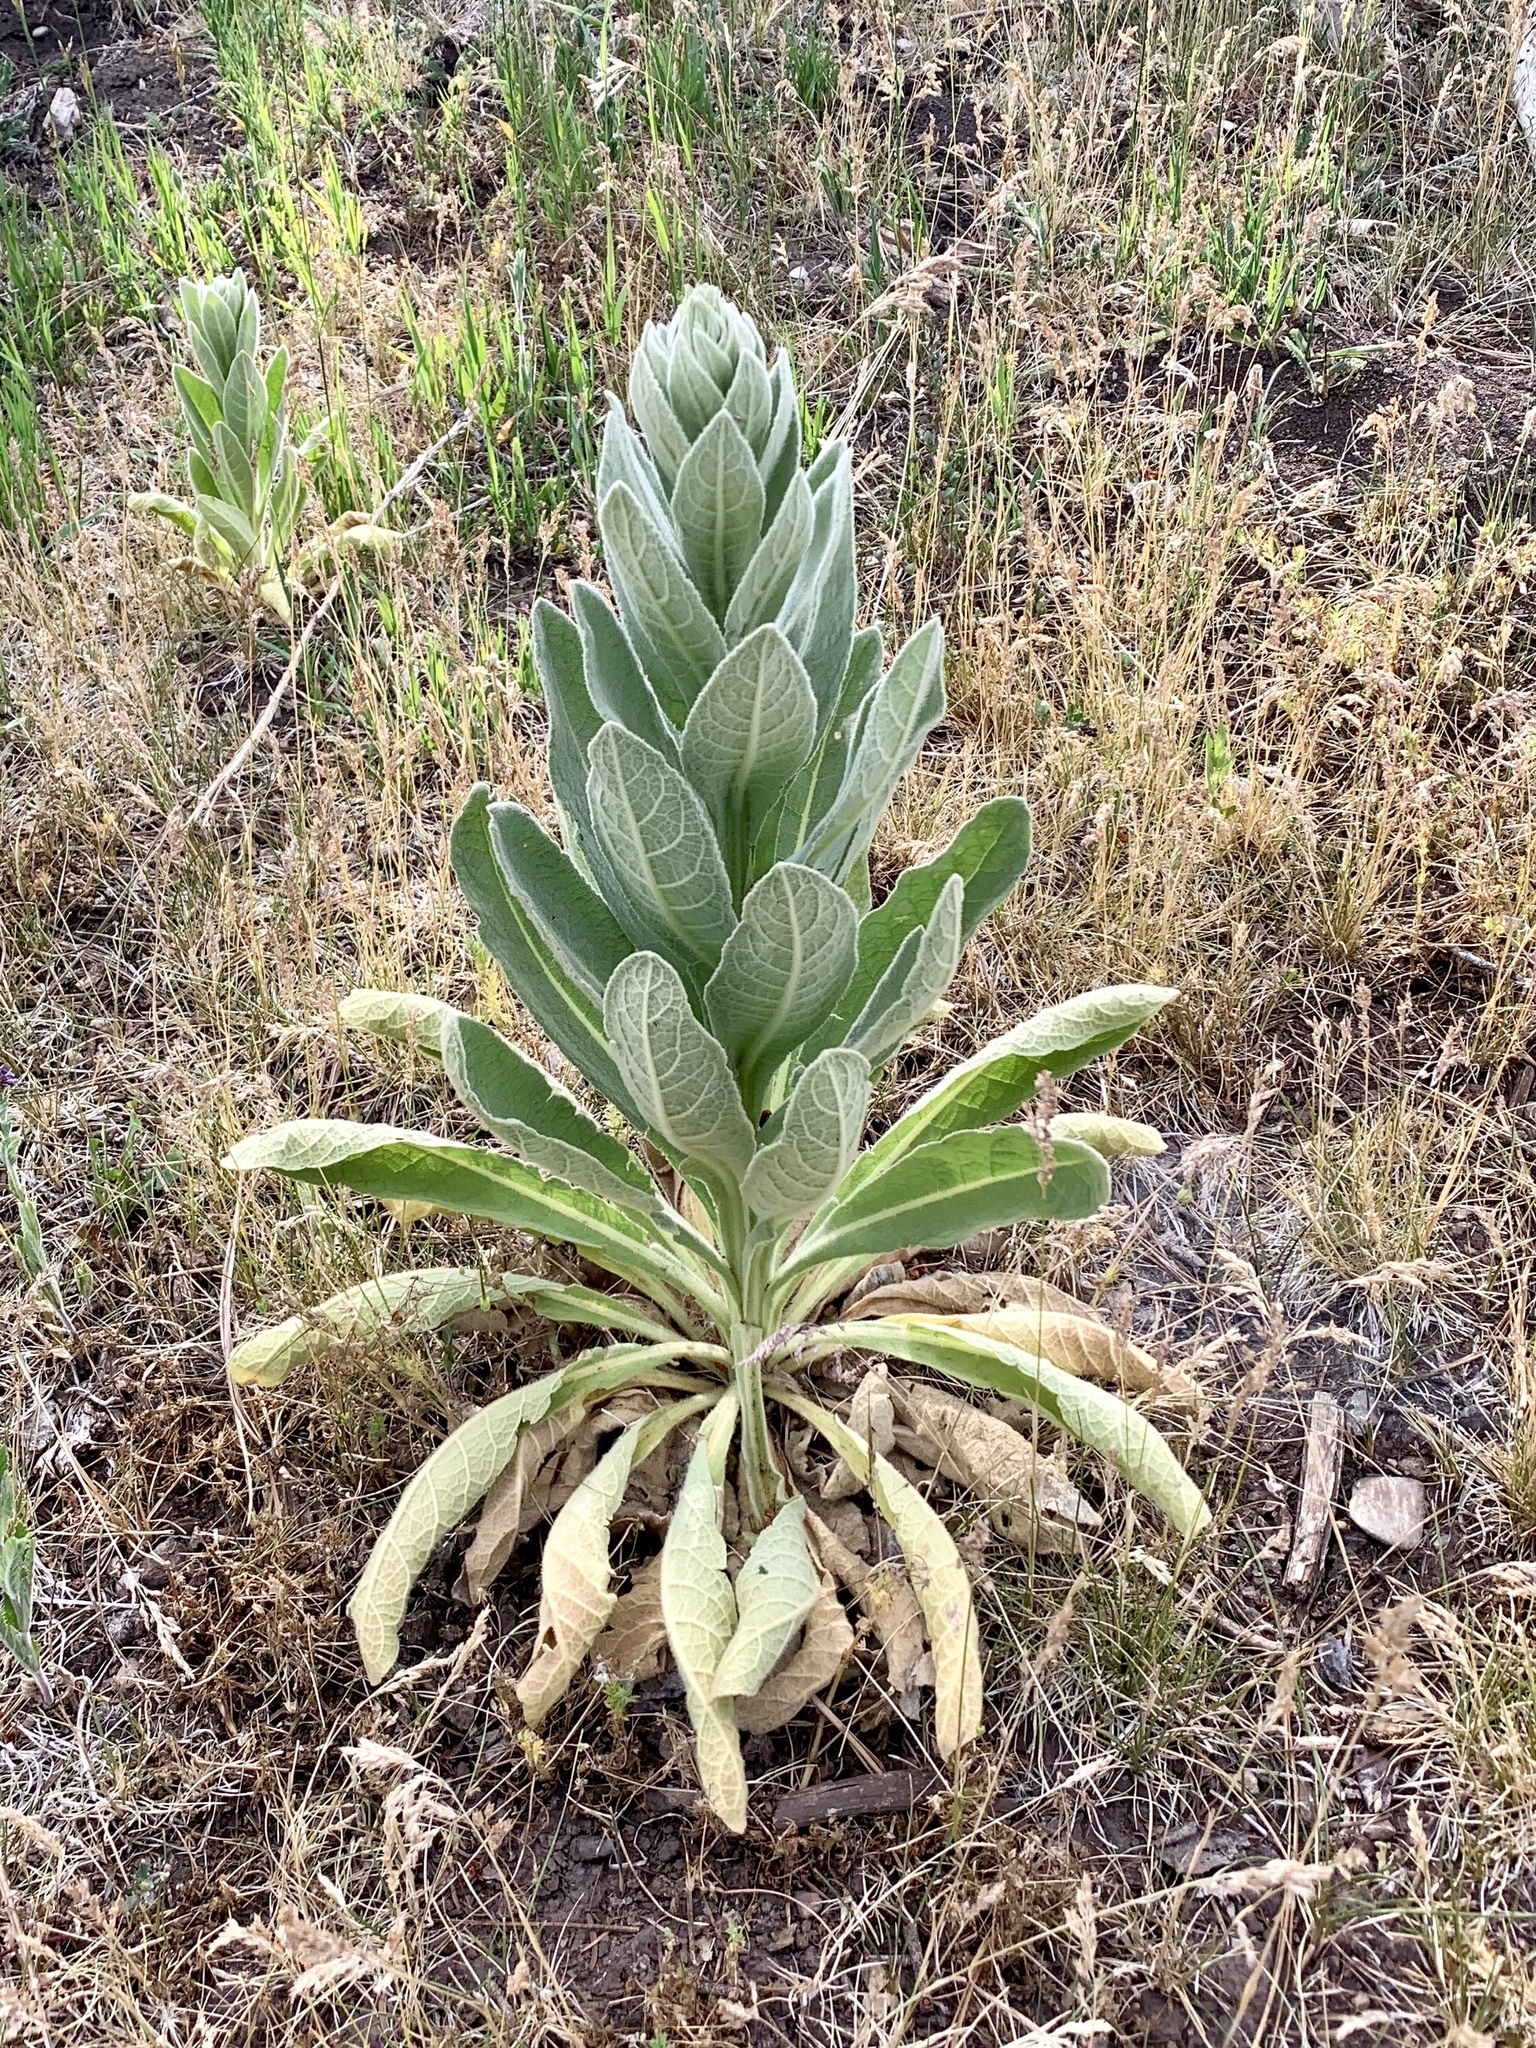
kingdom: Plantae
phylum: Tracheophyta
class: Magnoliopsida
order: Lamiales
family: Scrophulariaceae
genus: Verbascum
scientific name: Verbascum thapsus
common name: Common mullein
